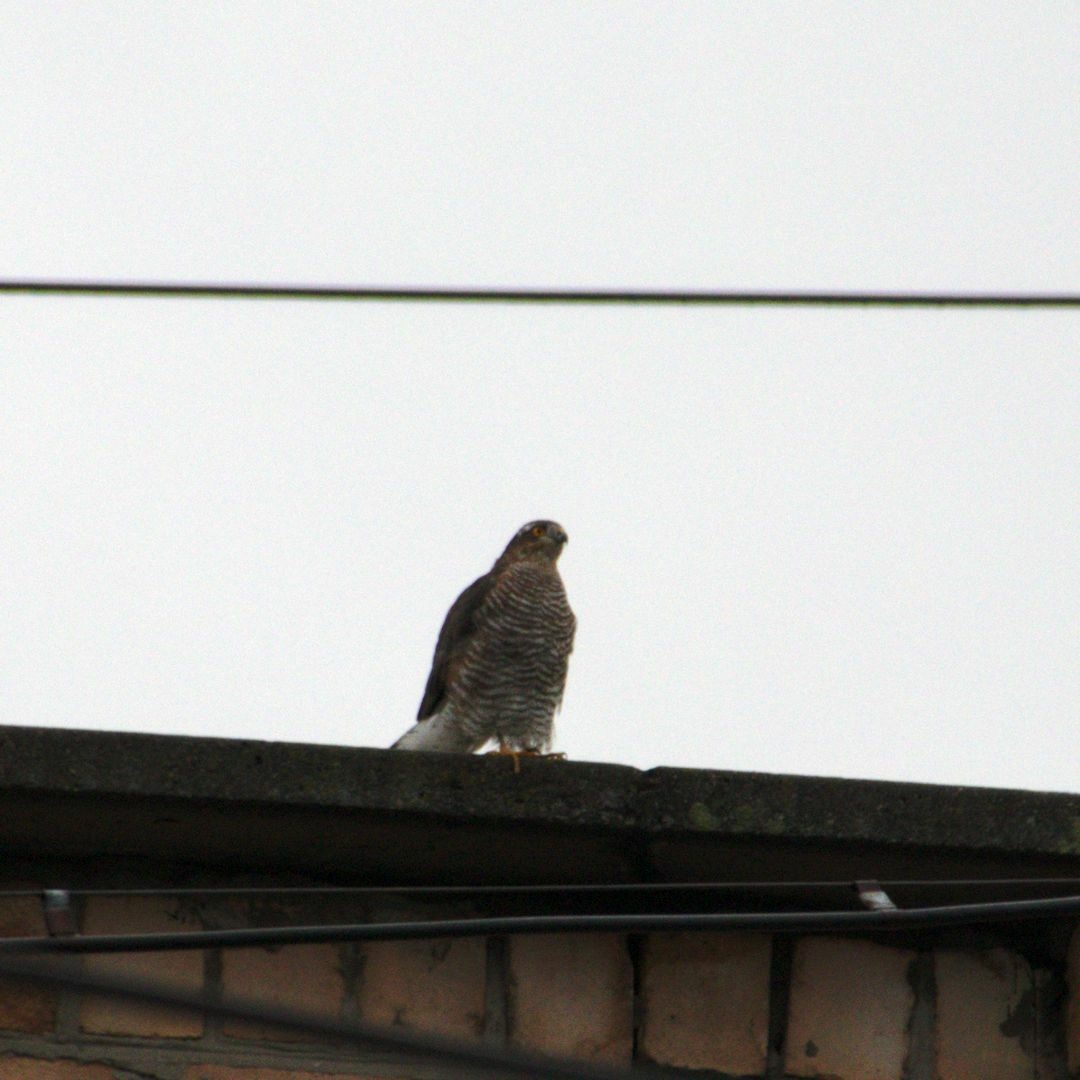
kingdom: Animalia
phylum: Chordata
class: Aves
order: Accipitriformes
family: Accipitridae
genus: Accipiter
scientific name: Accipiter nisus
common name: Eurasian sparrowhawk
